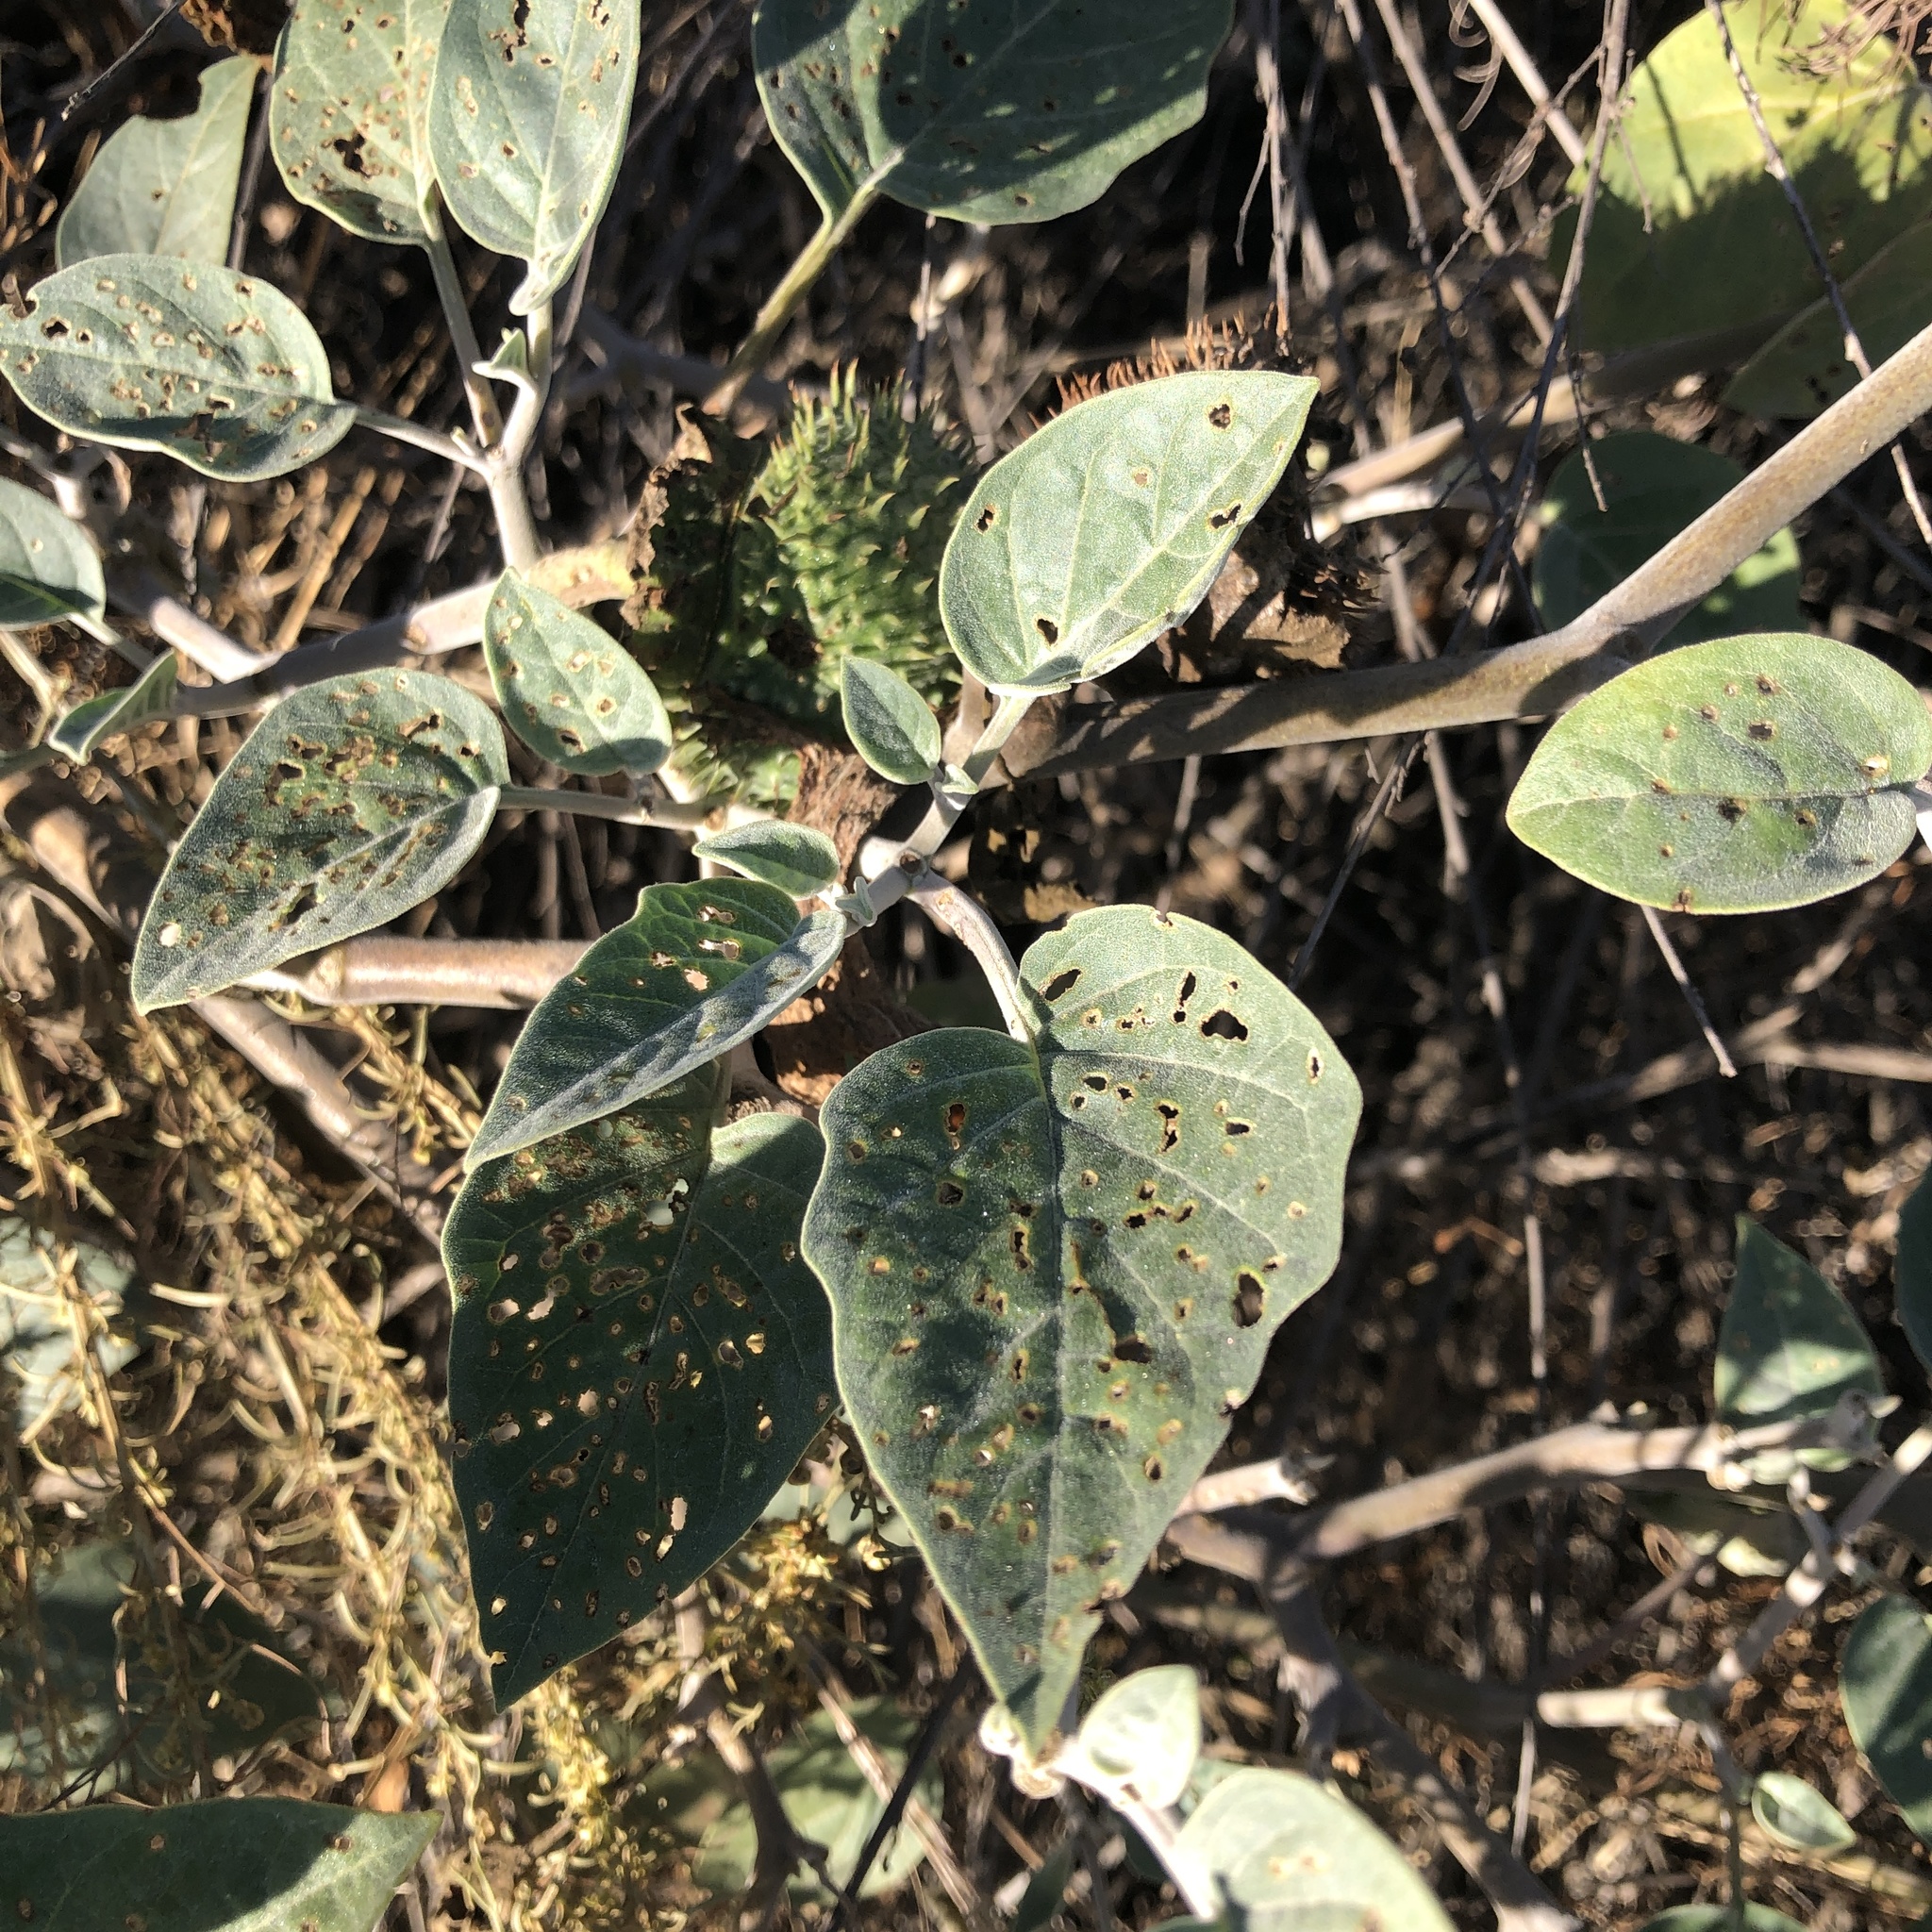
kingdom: Plantae
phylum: Tracheophyta
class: Magnoliopsida
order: Solanales
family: Solanaceae
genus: Datura
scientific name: Datura wrightii
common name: Sacred thorn-apple
